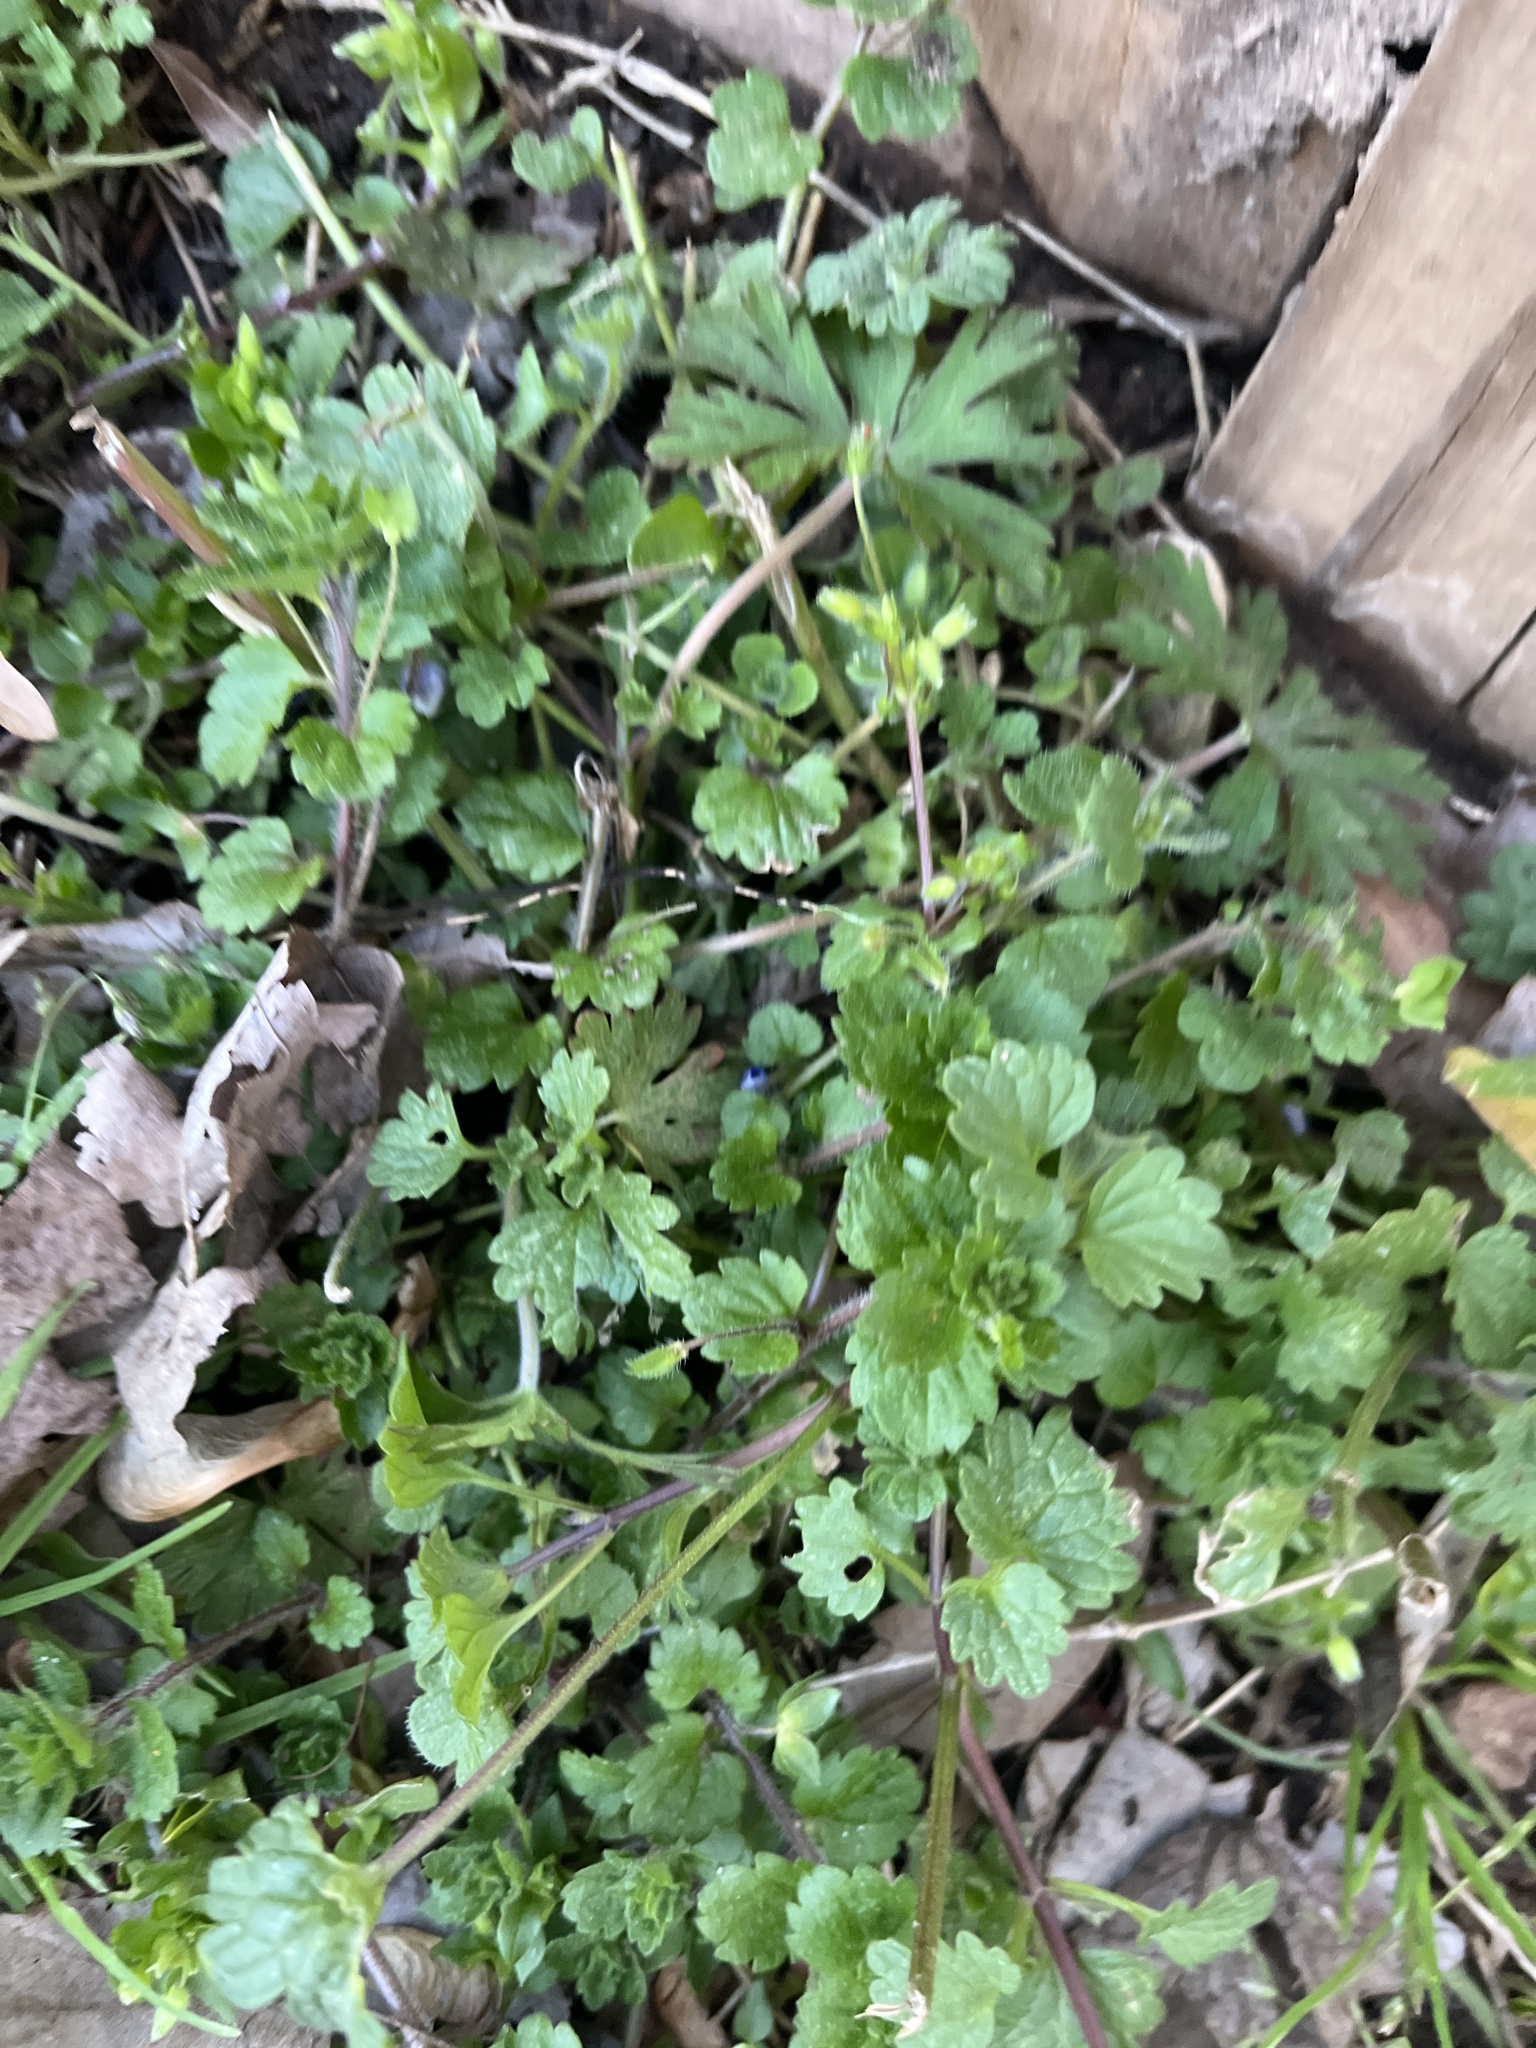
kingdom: Plantae
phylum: Tracheophyta
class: Magnoliopsida
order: Lamiales
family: Plantaginaceae
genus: Veronica
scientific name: Veronica persica
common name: Common field-speedwell
